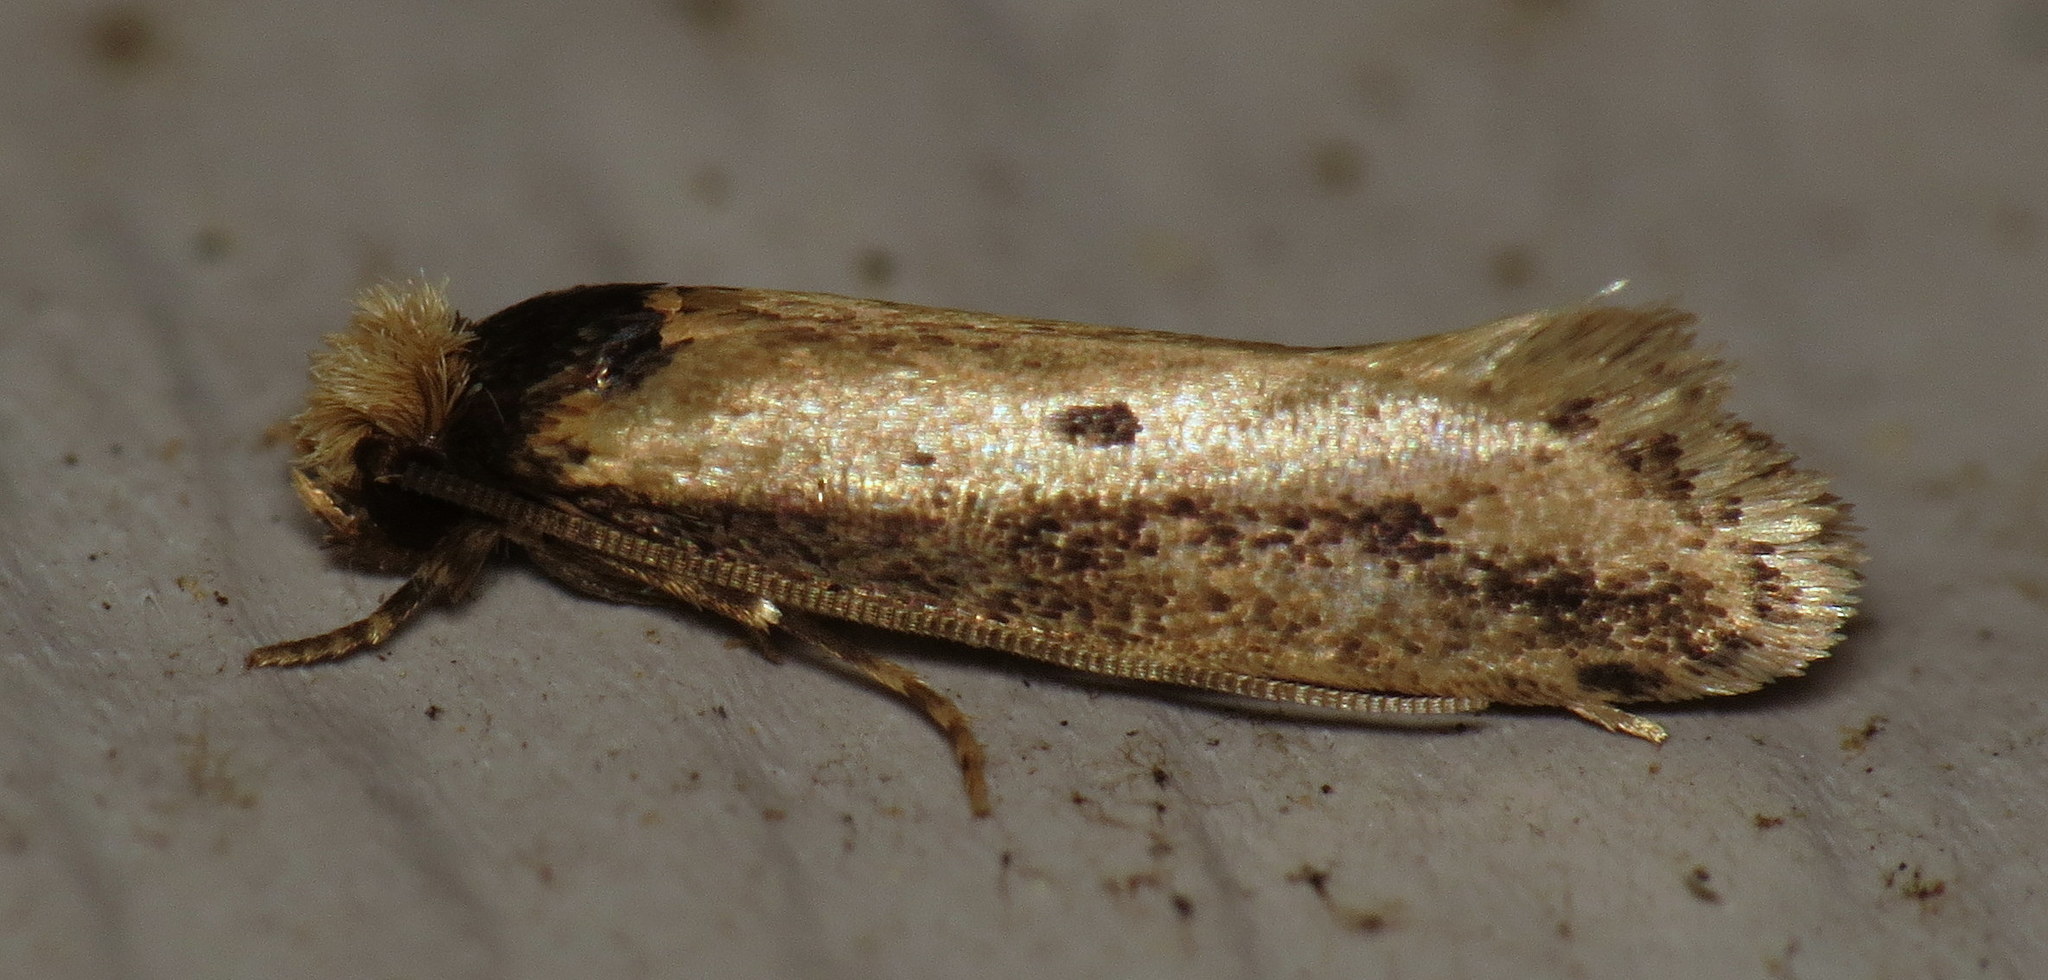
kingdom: Animalia
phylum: Arthropoda
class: Insecta
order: Lepidoptera
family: Tineidae
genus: Tinea
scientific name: Tinea apicimaculella
